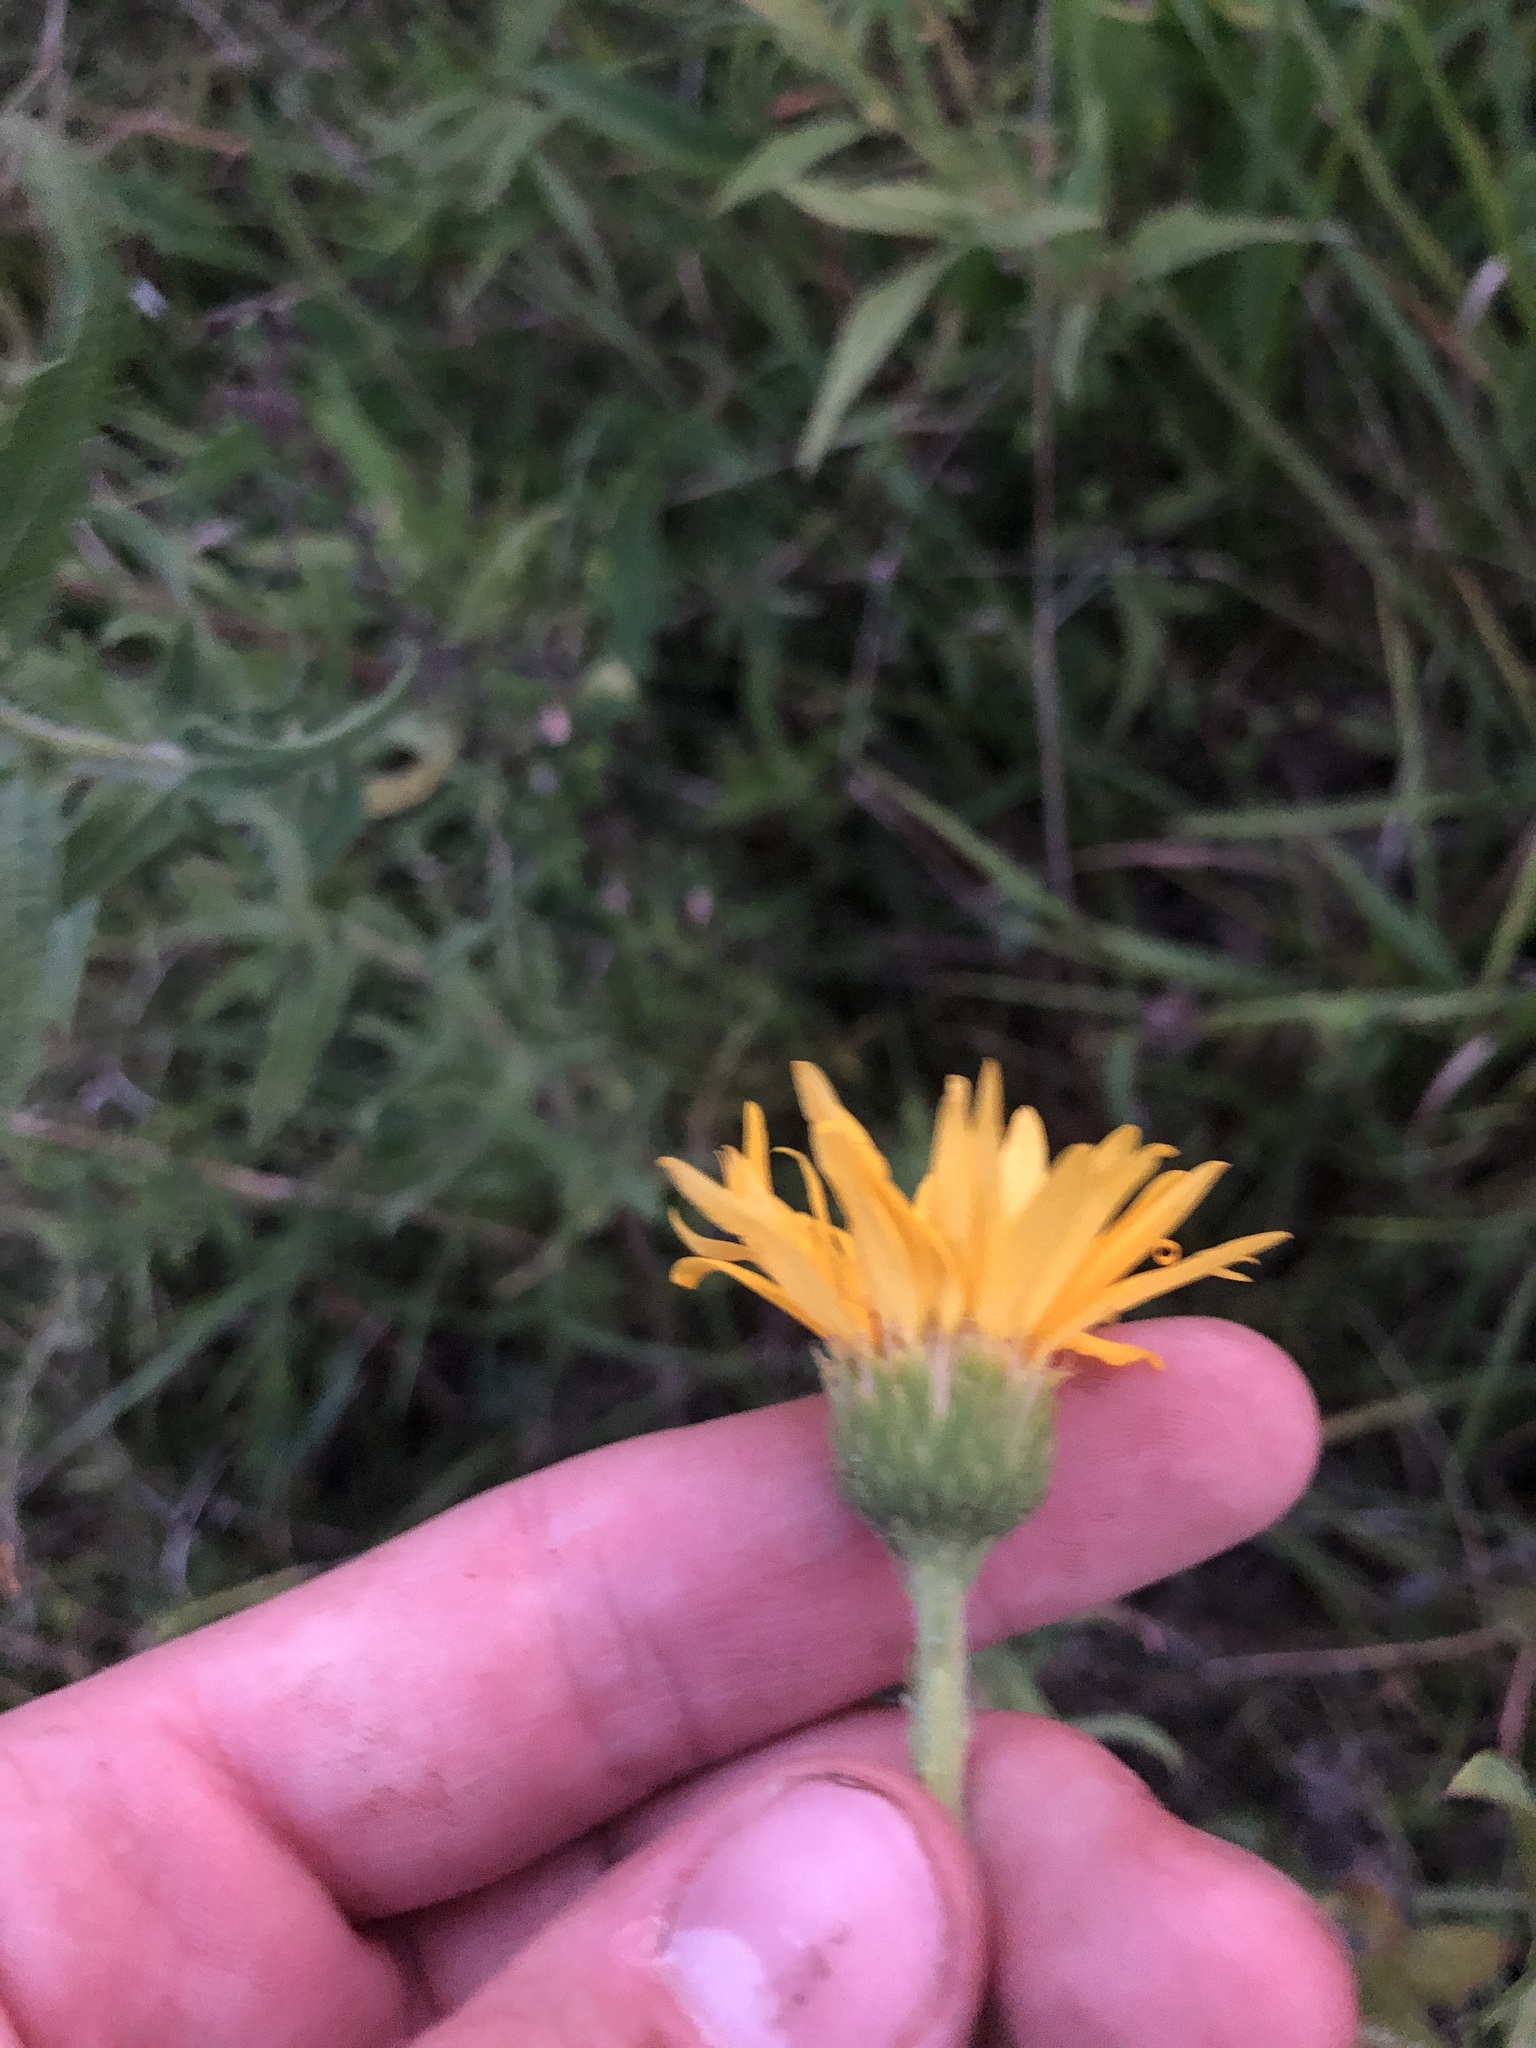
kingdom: Plantae
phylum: Tracheophyta
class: Magnoliopsida
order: Asterales
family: Asteraceae
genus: Heterotheca
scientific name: Heterotheca camporum
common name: Prairie golden-aster
